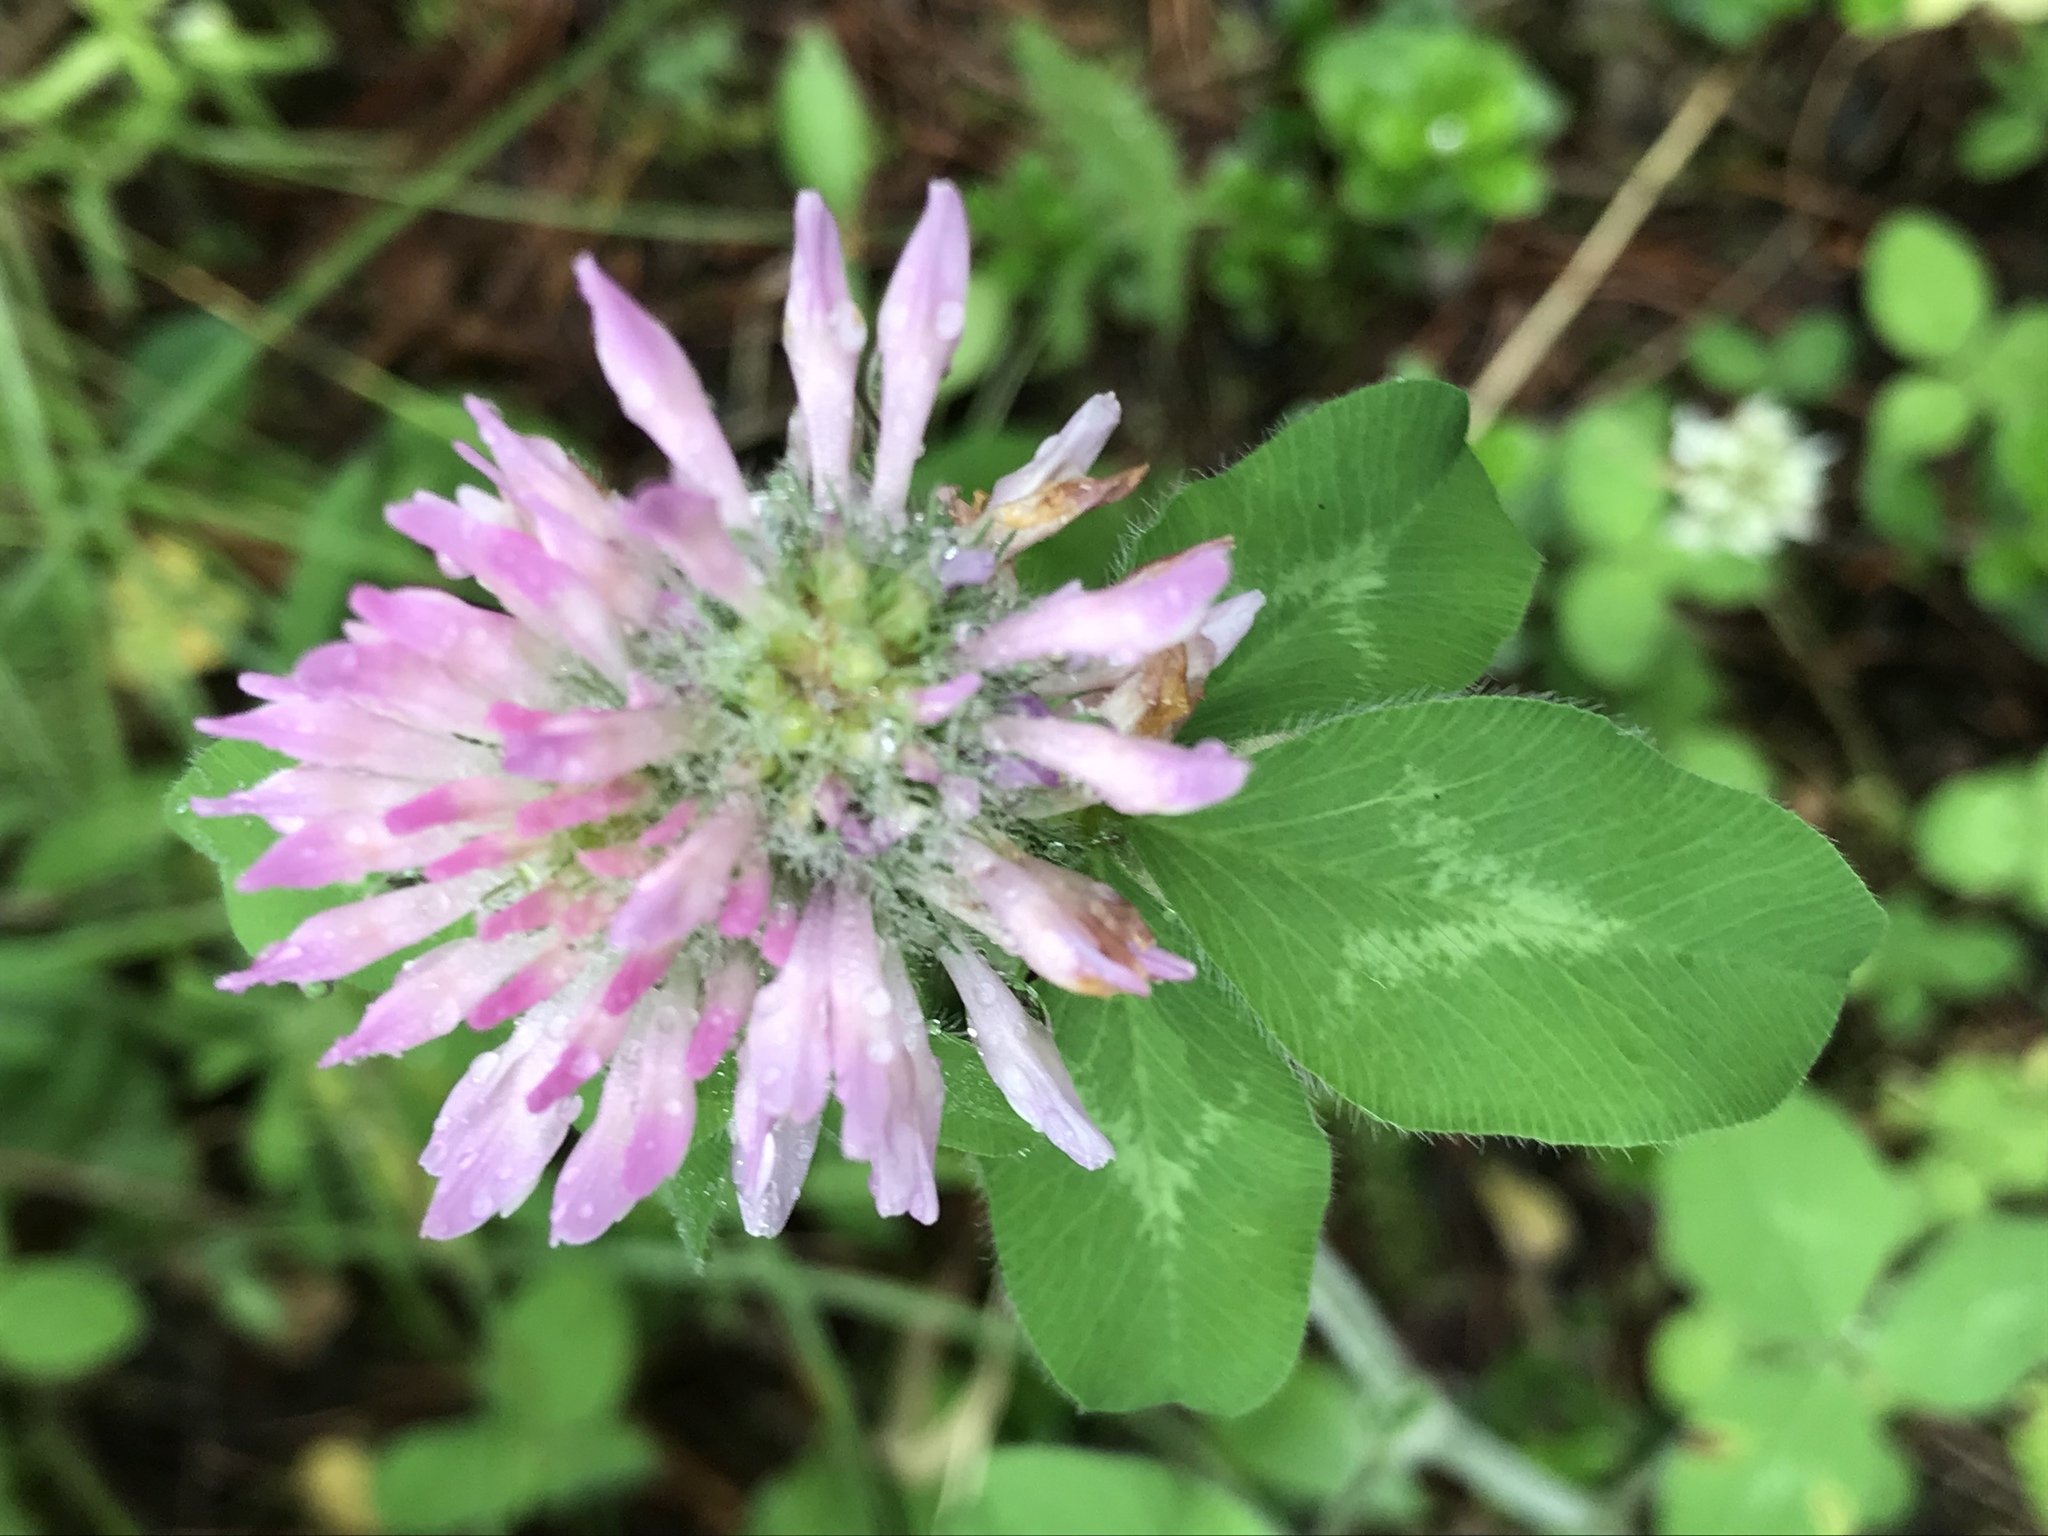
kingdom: Plantae
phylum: Tracheophyta
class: Magnoliopsida
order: Fabales
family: Fabaceae
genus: Trifolium
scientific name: Trifolium pratense
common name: Red clover
